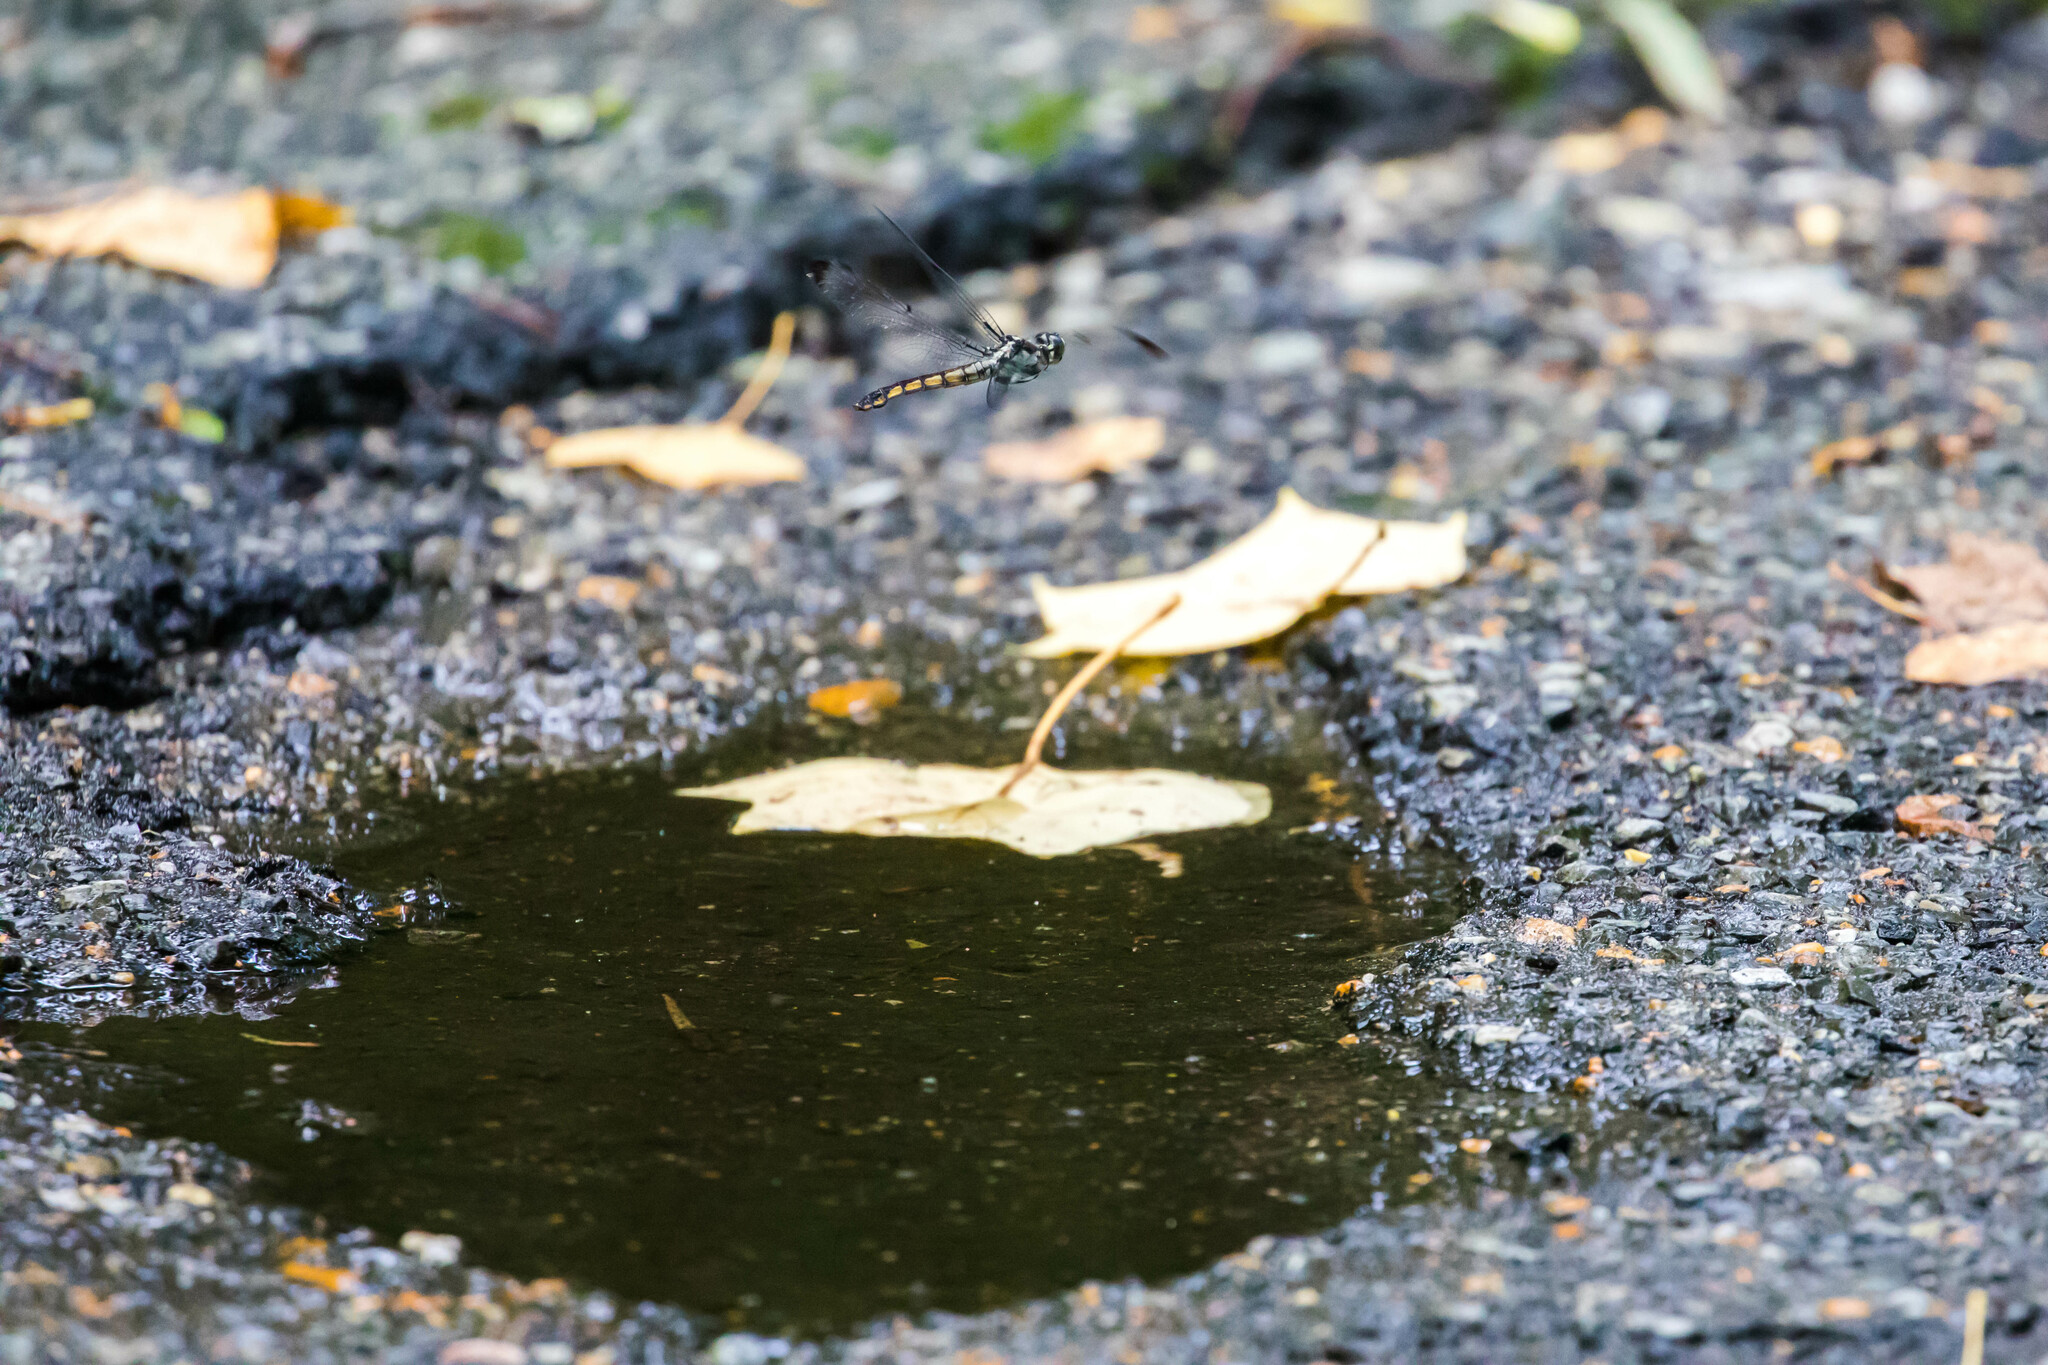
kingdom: Animalia
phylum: Arthropoda
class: Insecta
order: Odonata
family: Libellulidae
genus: Libellula
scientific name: Libellula vibrans
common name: Great blue skimmer
